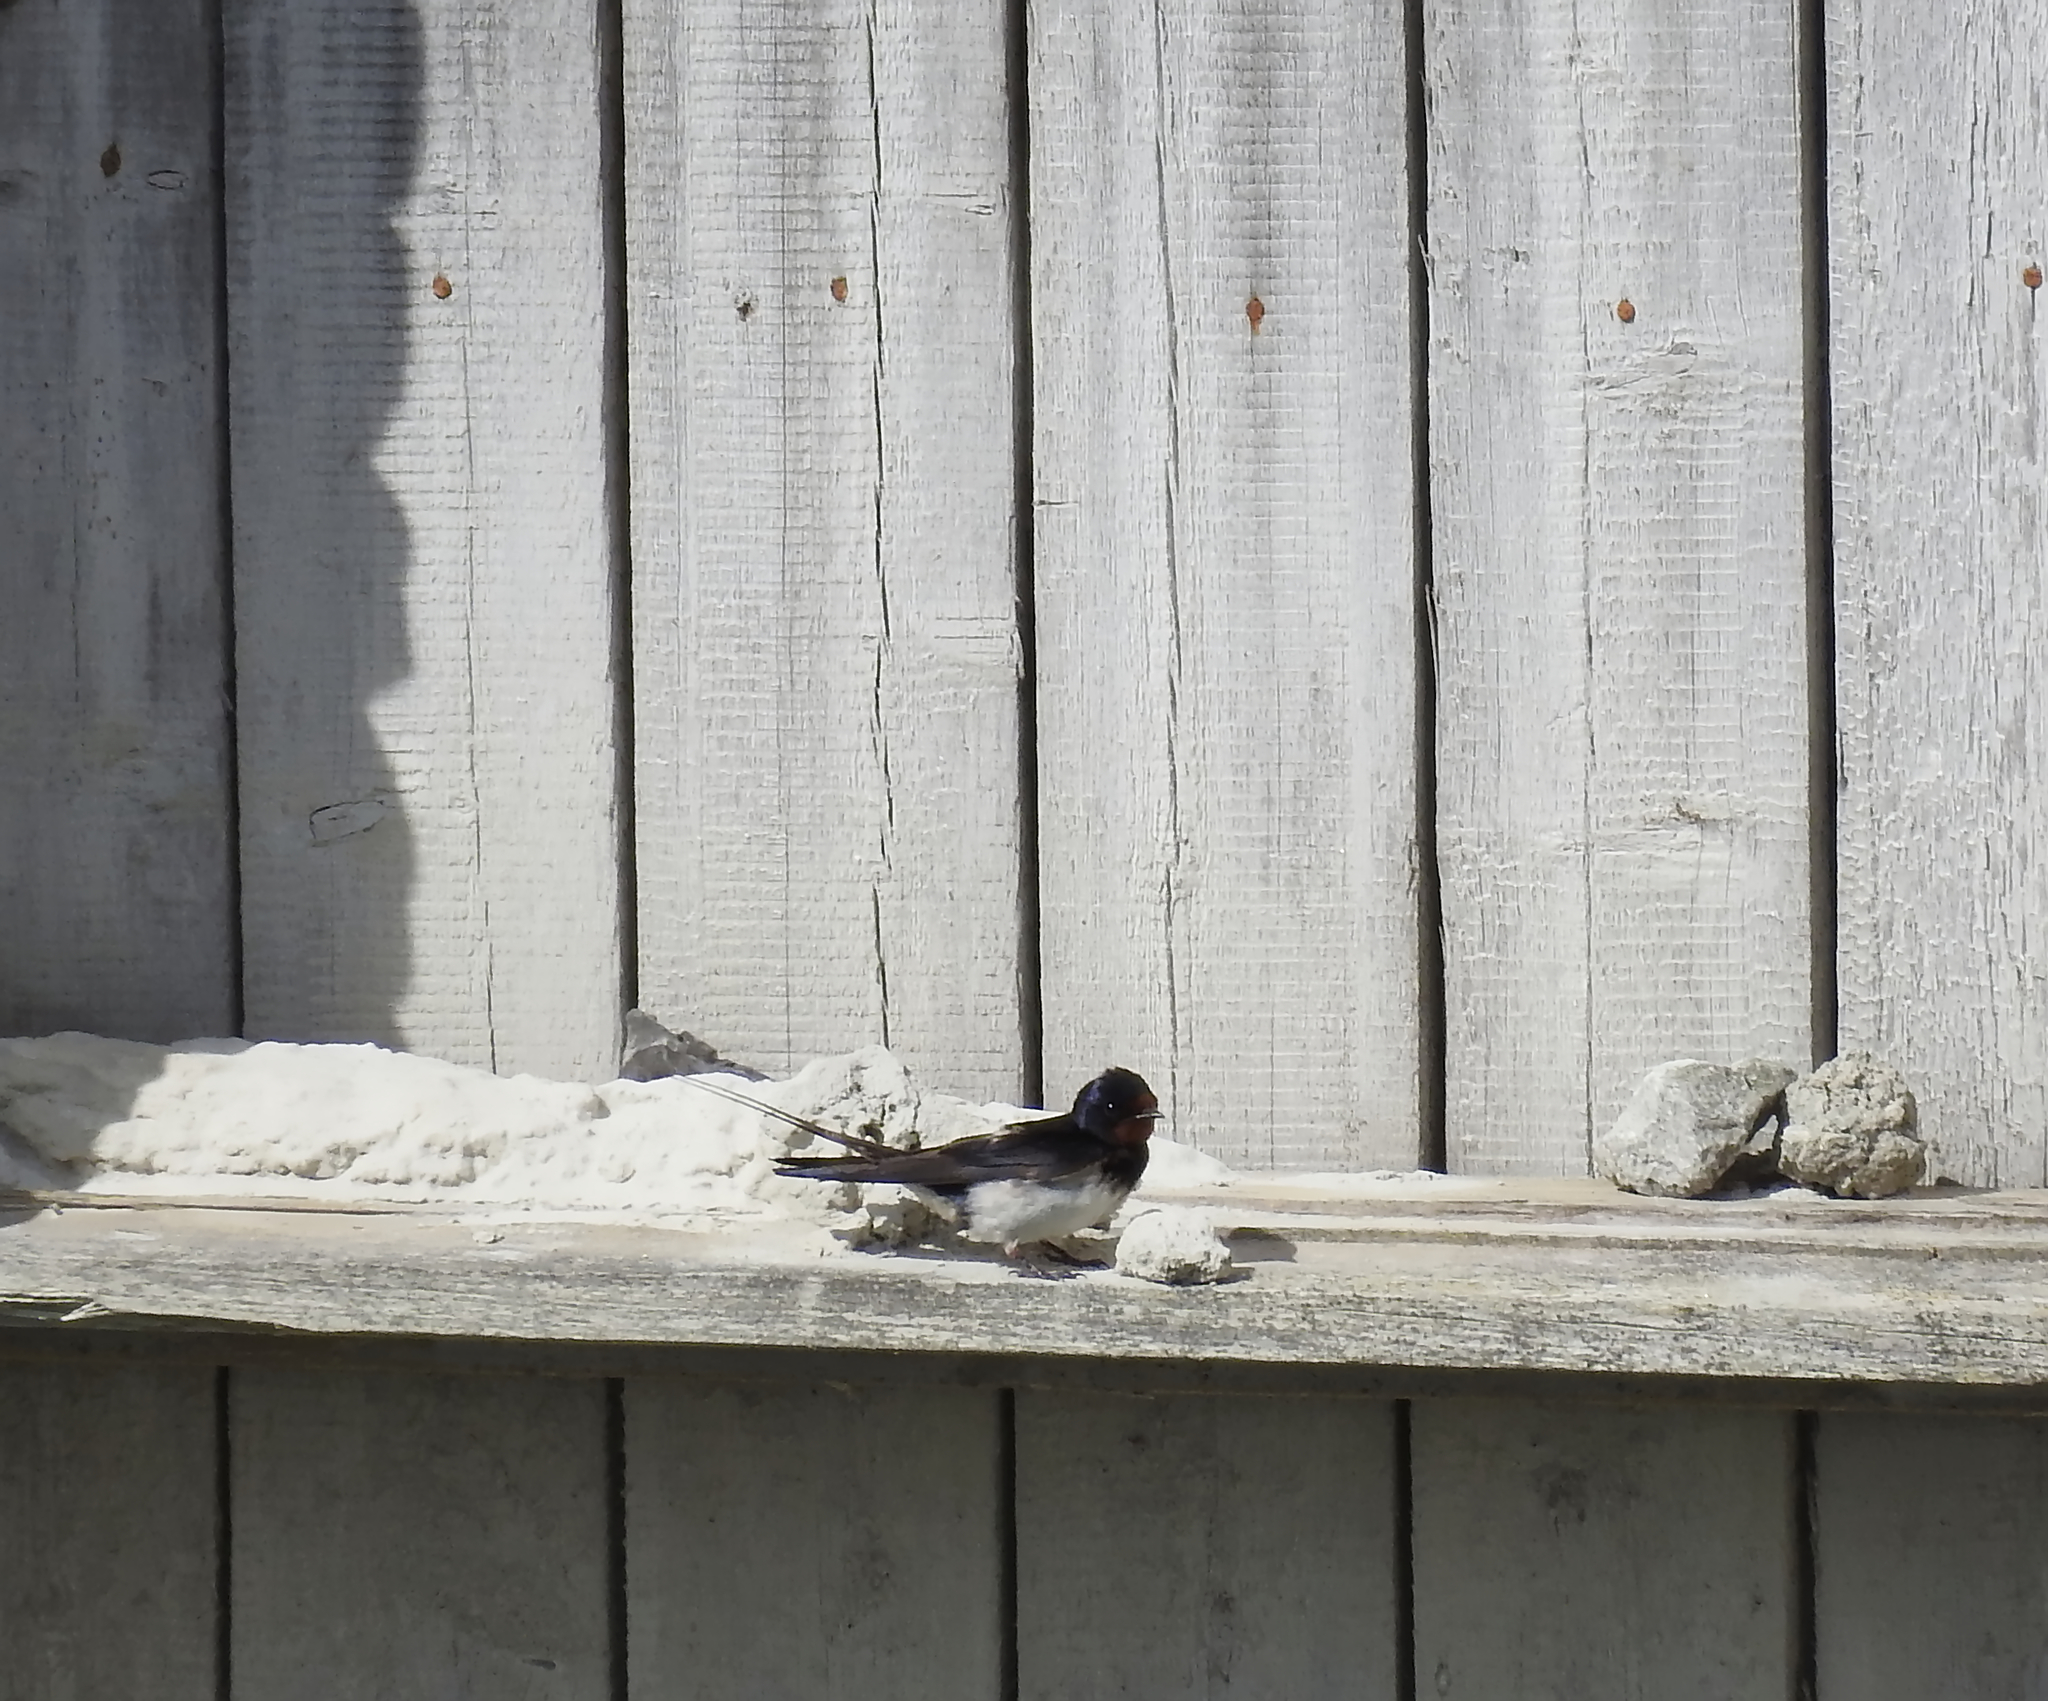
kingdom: Animalia
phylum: Chordata
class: Aves
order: Passeriformes
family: Hirundinidae
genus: Hirundo
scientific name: Hirundo rustica
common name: Barn swallow
